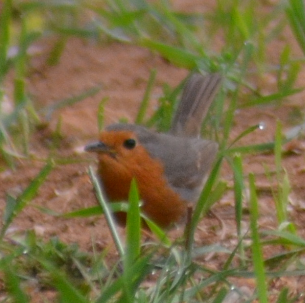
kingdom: Animalia
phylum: Chordata
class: Aves
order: Passeriformes
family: Muscicapidae
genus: Erithacus
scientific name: Erithacus rubecula
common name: European robin
